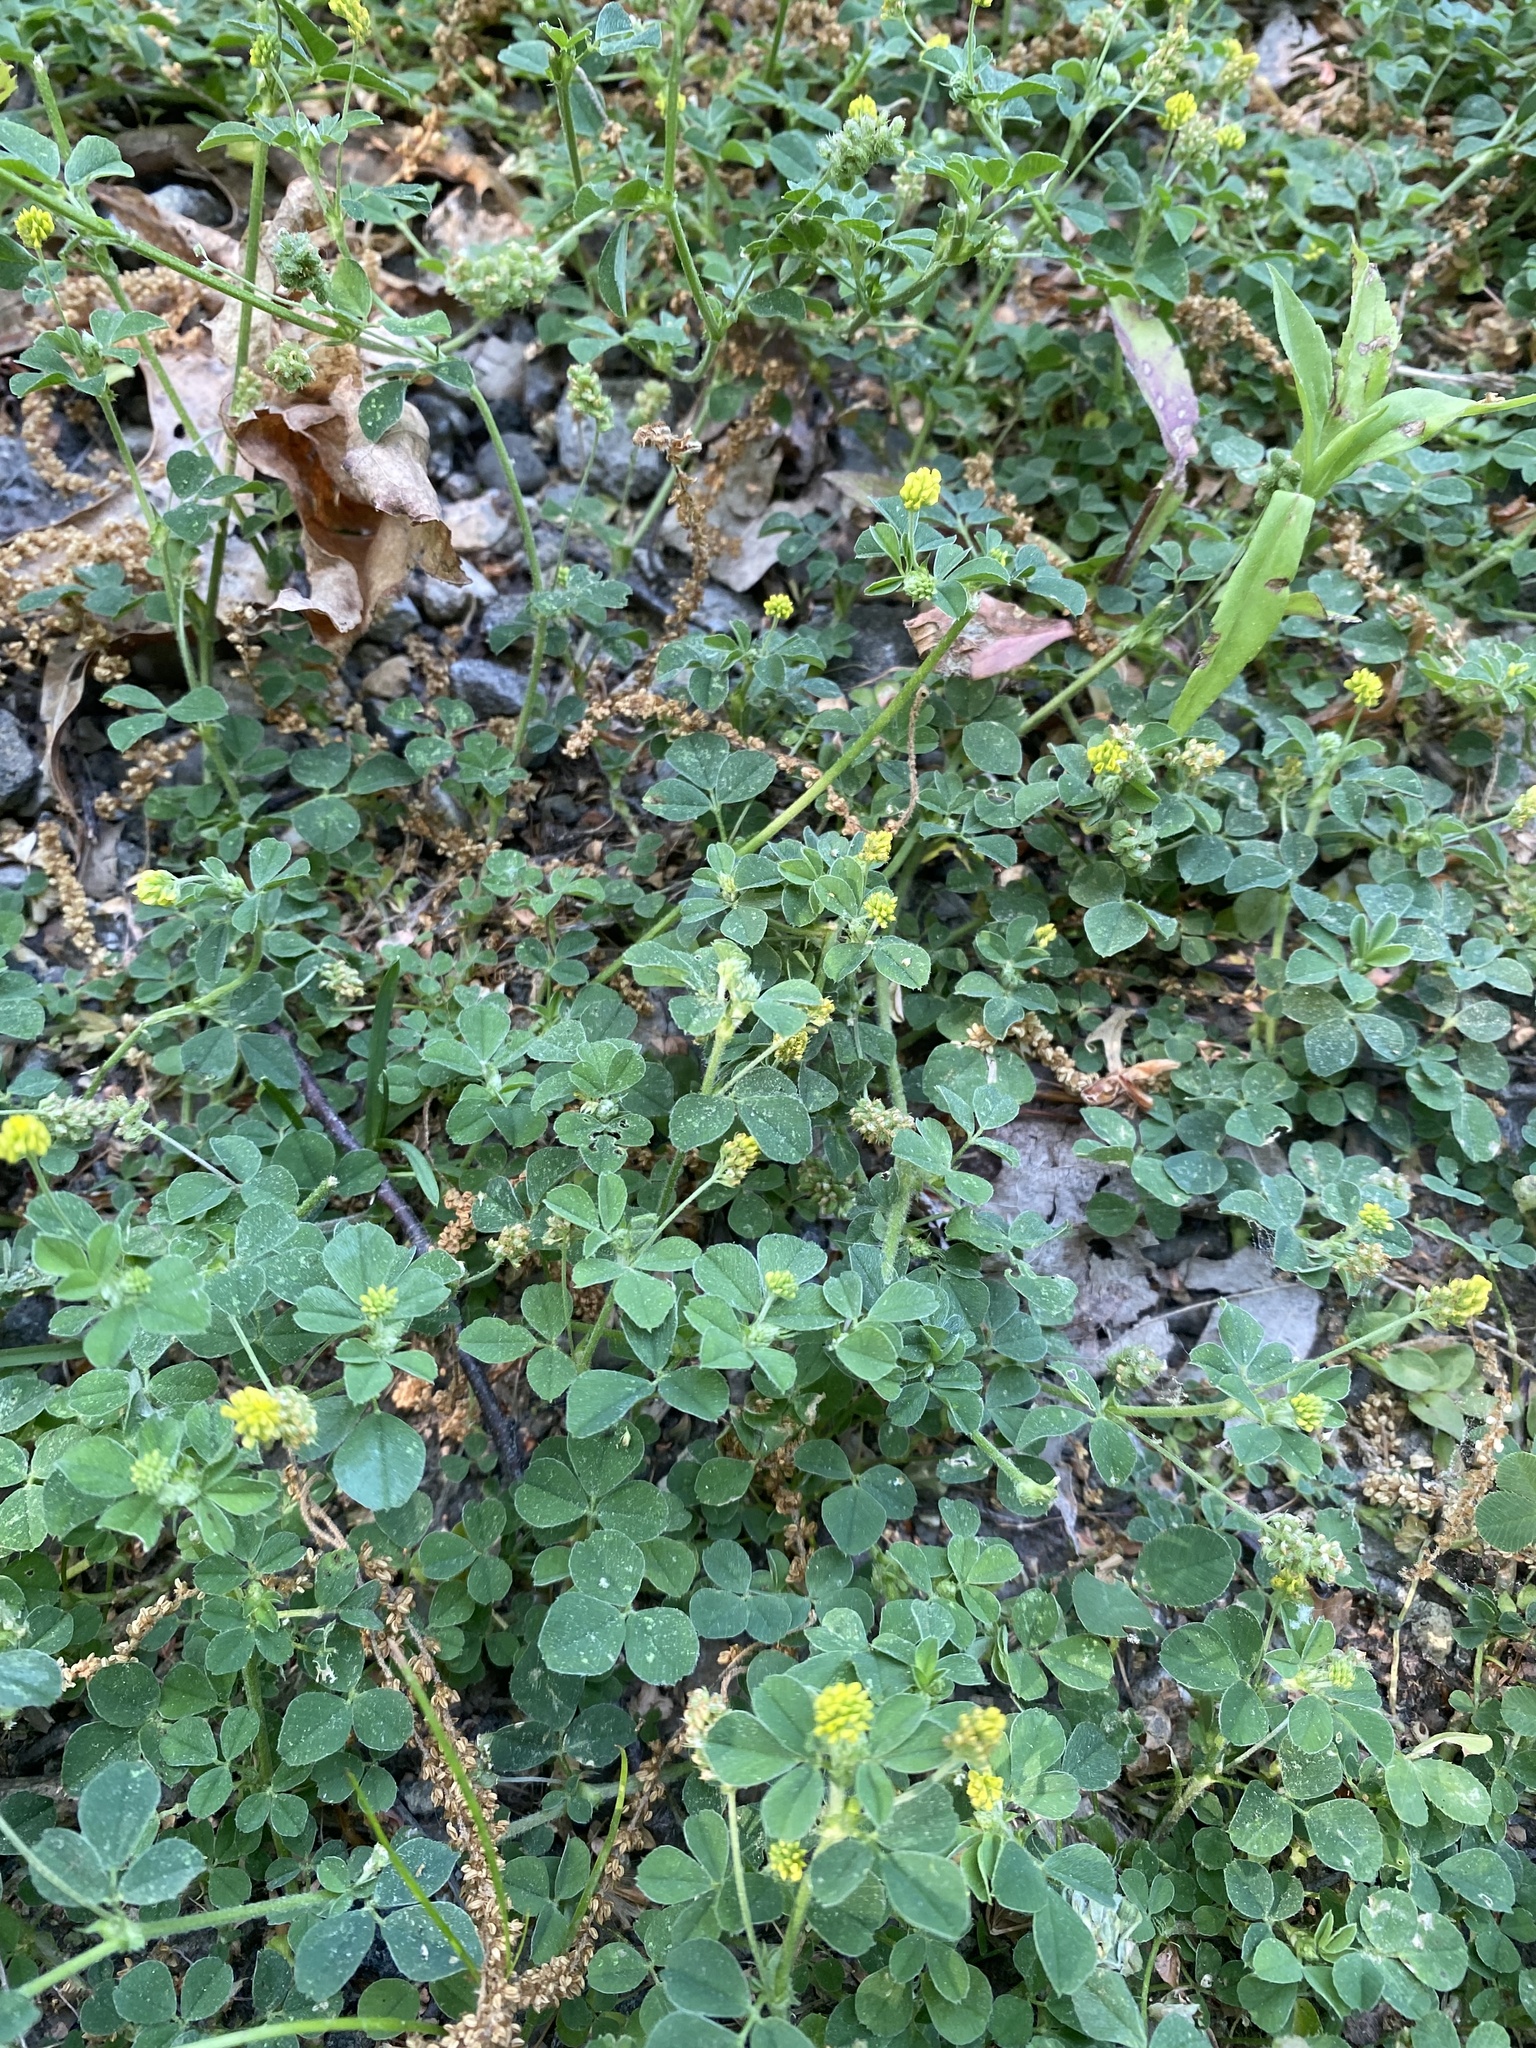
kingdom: Plantae
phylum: Tracheophyta
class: Magnoliopsida
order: Fabales
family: Fabaceae
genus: Medicago
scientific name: Medicago lupulina
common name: Black medick
